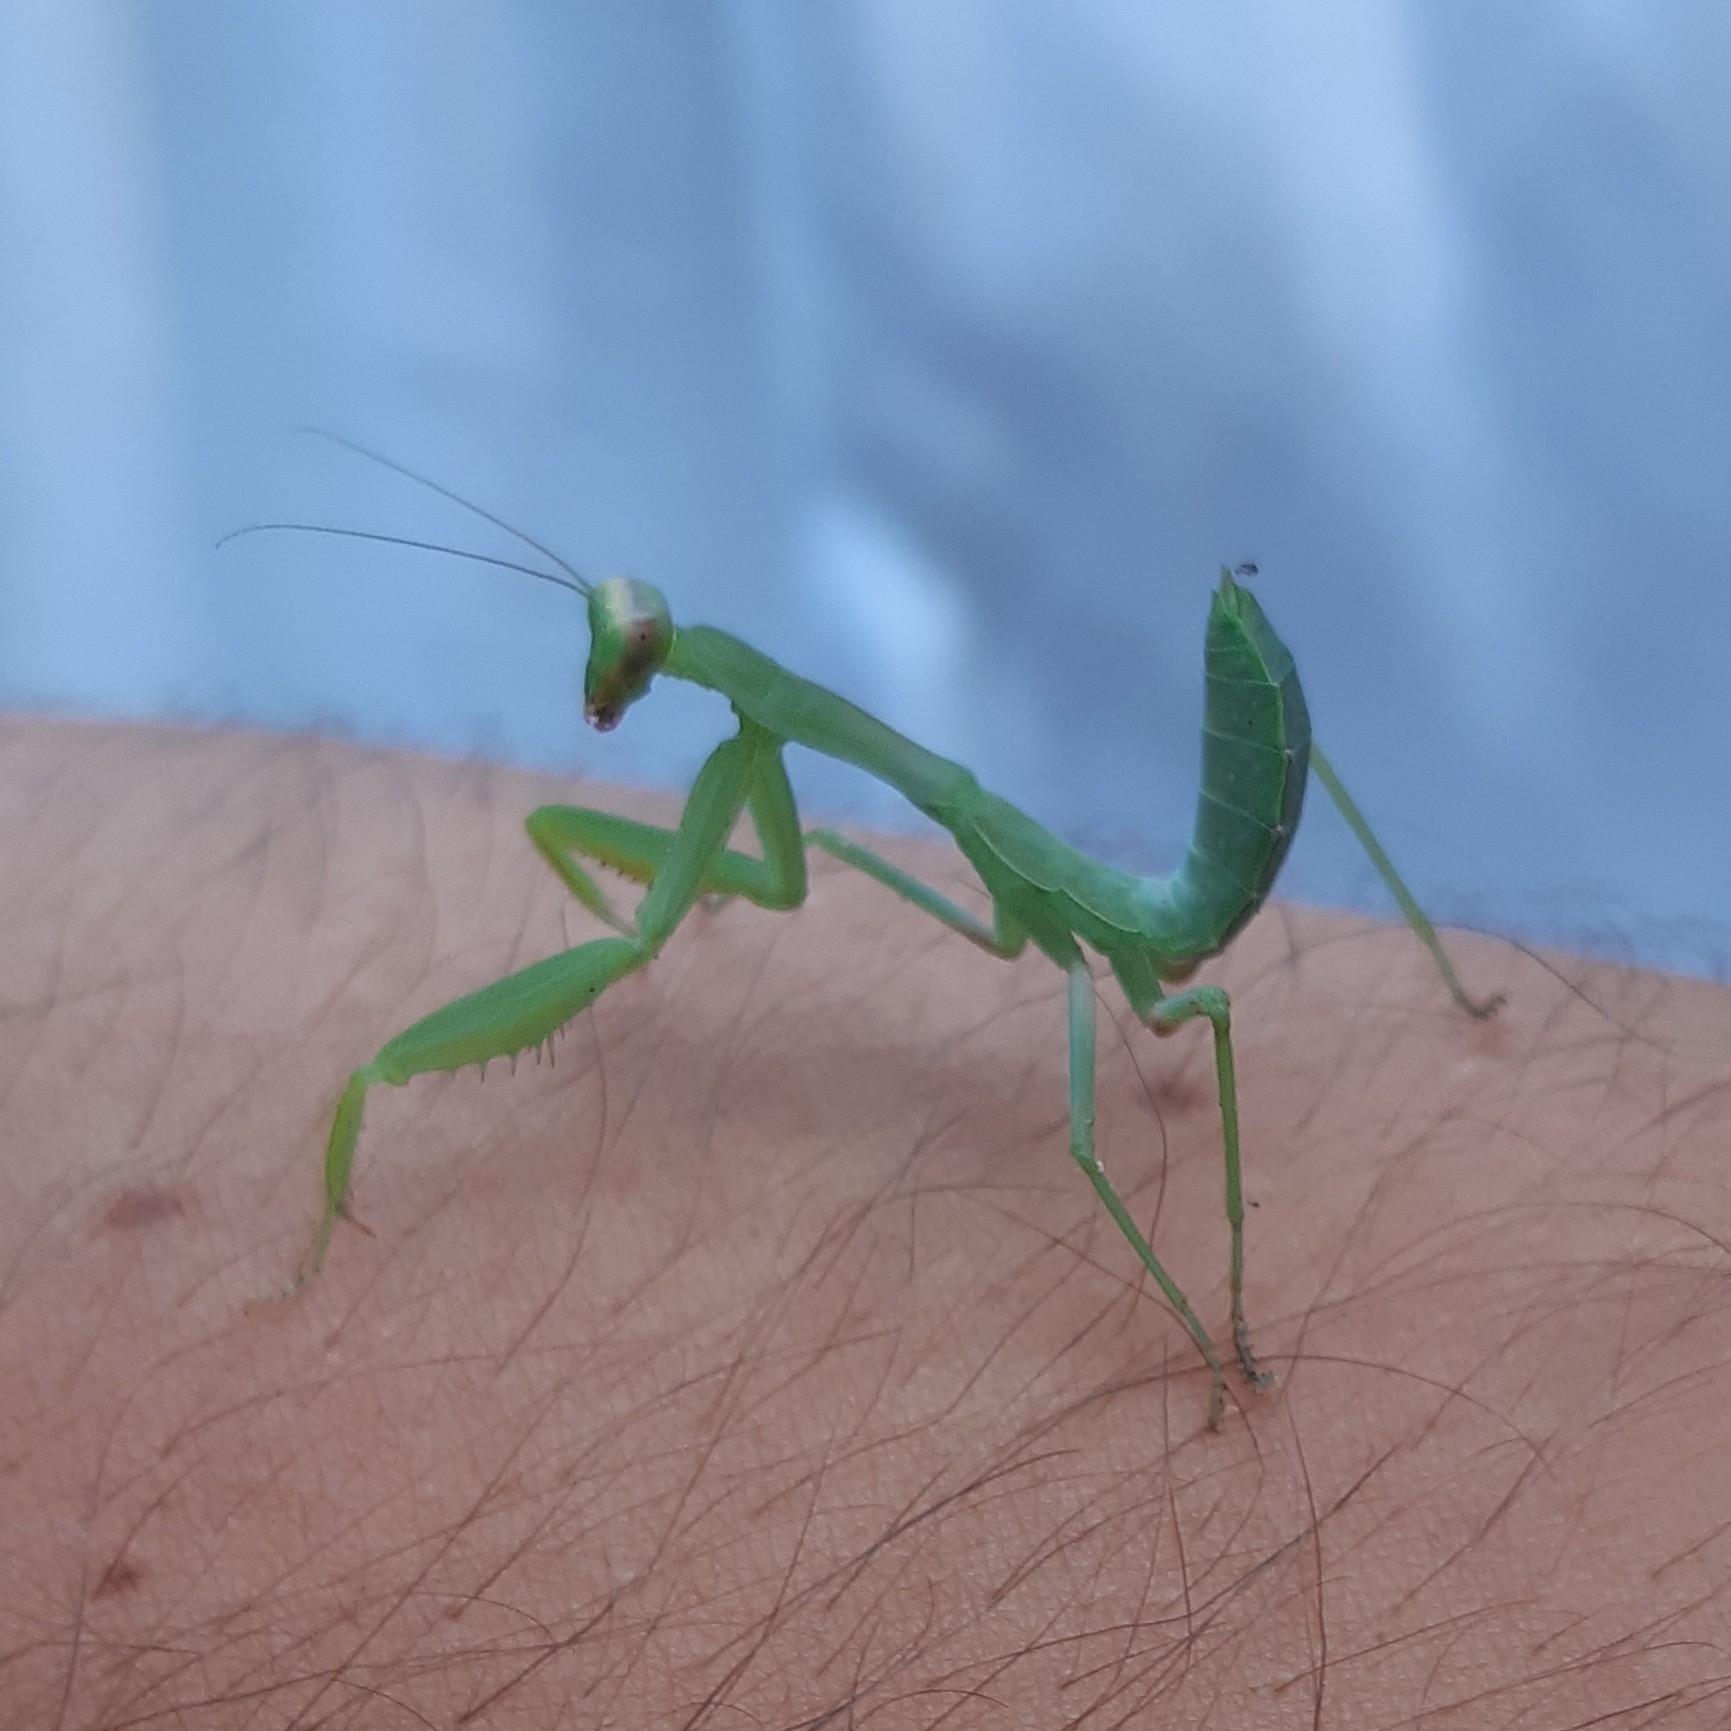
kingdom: Animalia
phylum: Arthropoda
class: Insecta
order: Mantodea
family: Mantidae
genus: Hierodula
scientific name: Hierodula transcaucasica
